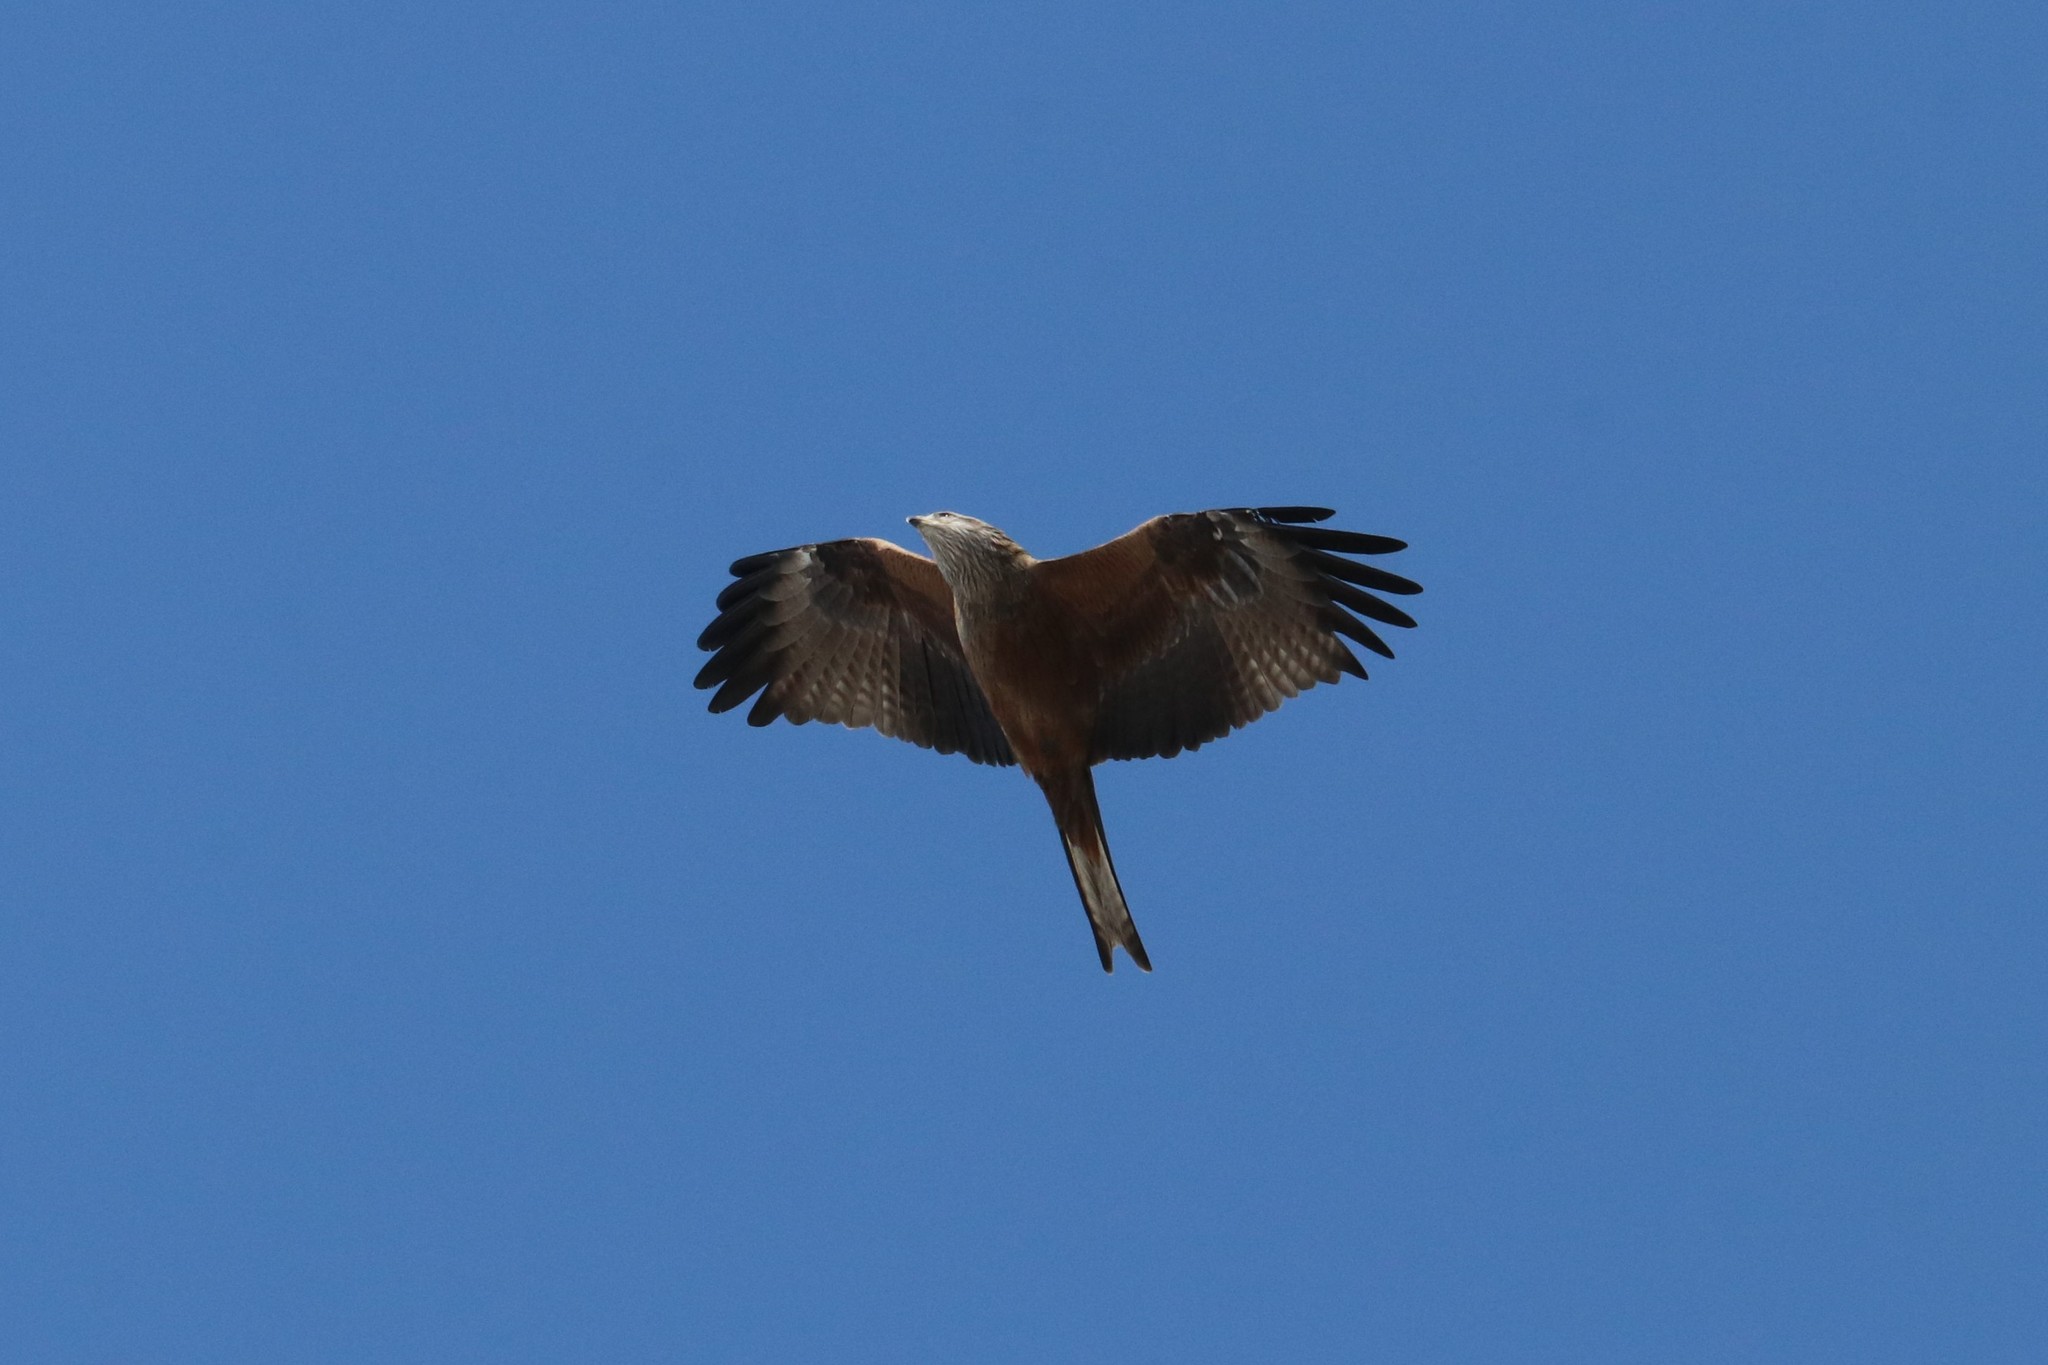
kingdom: Animalia
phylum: Chordata
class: Aves
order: Accipitriformes
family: Accipitridae
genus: Milvus
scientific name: Milvus migrans
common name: Black kite
